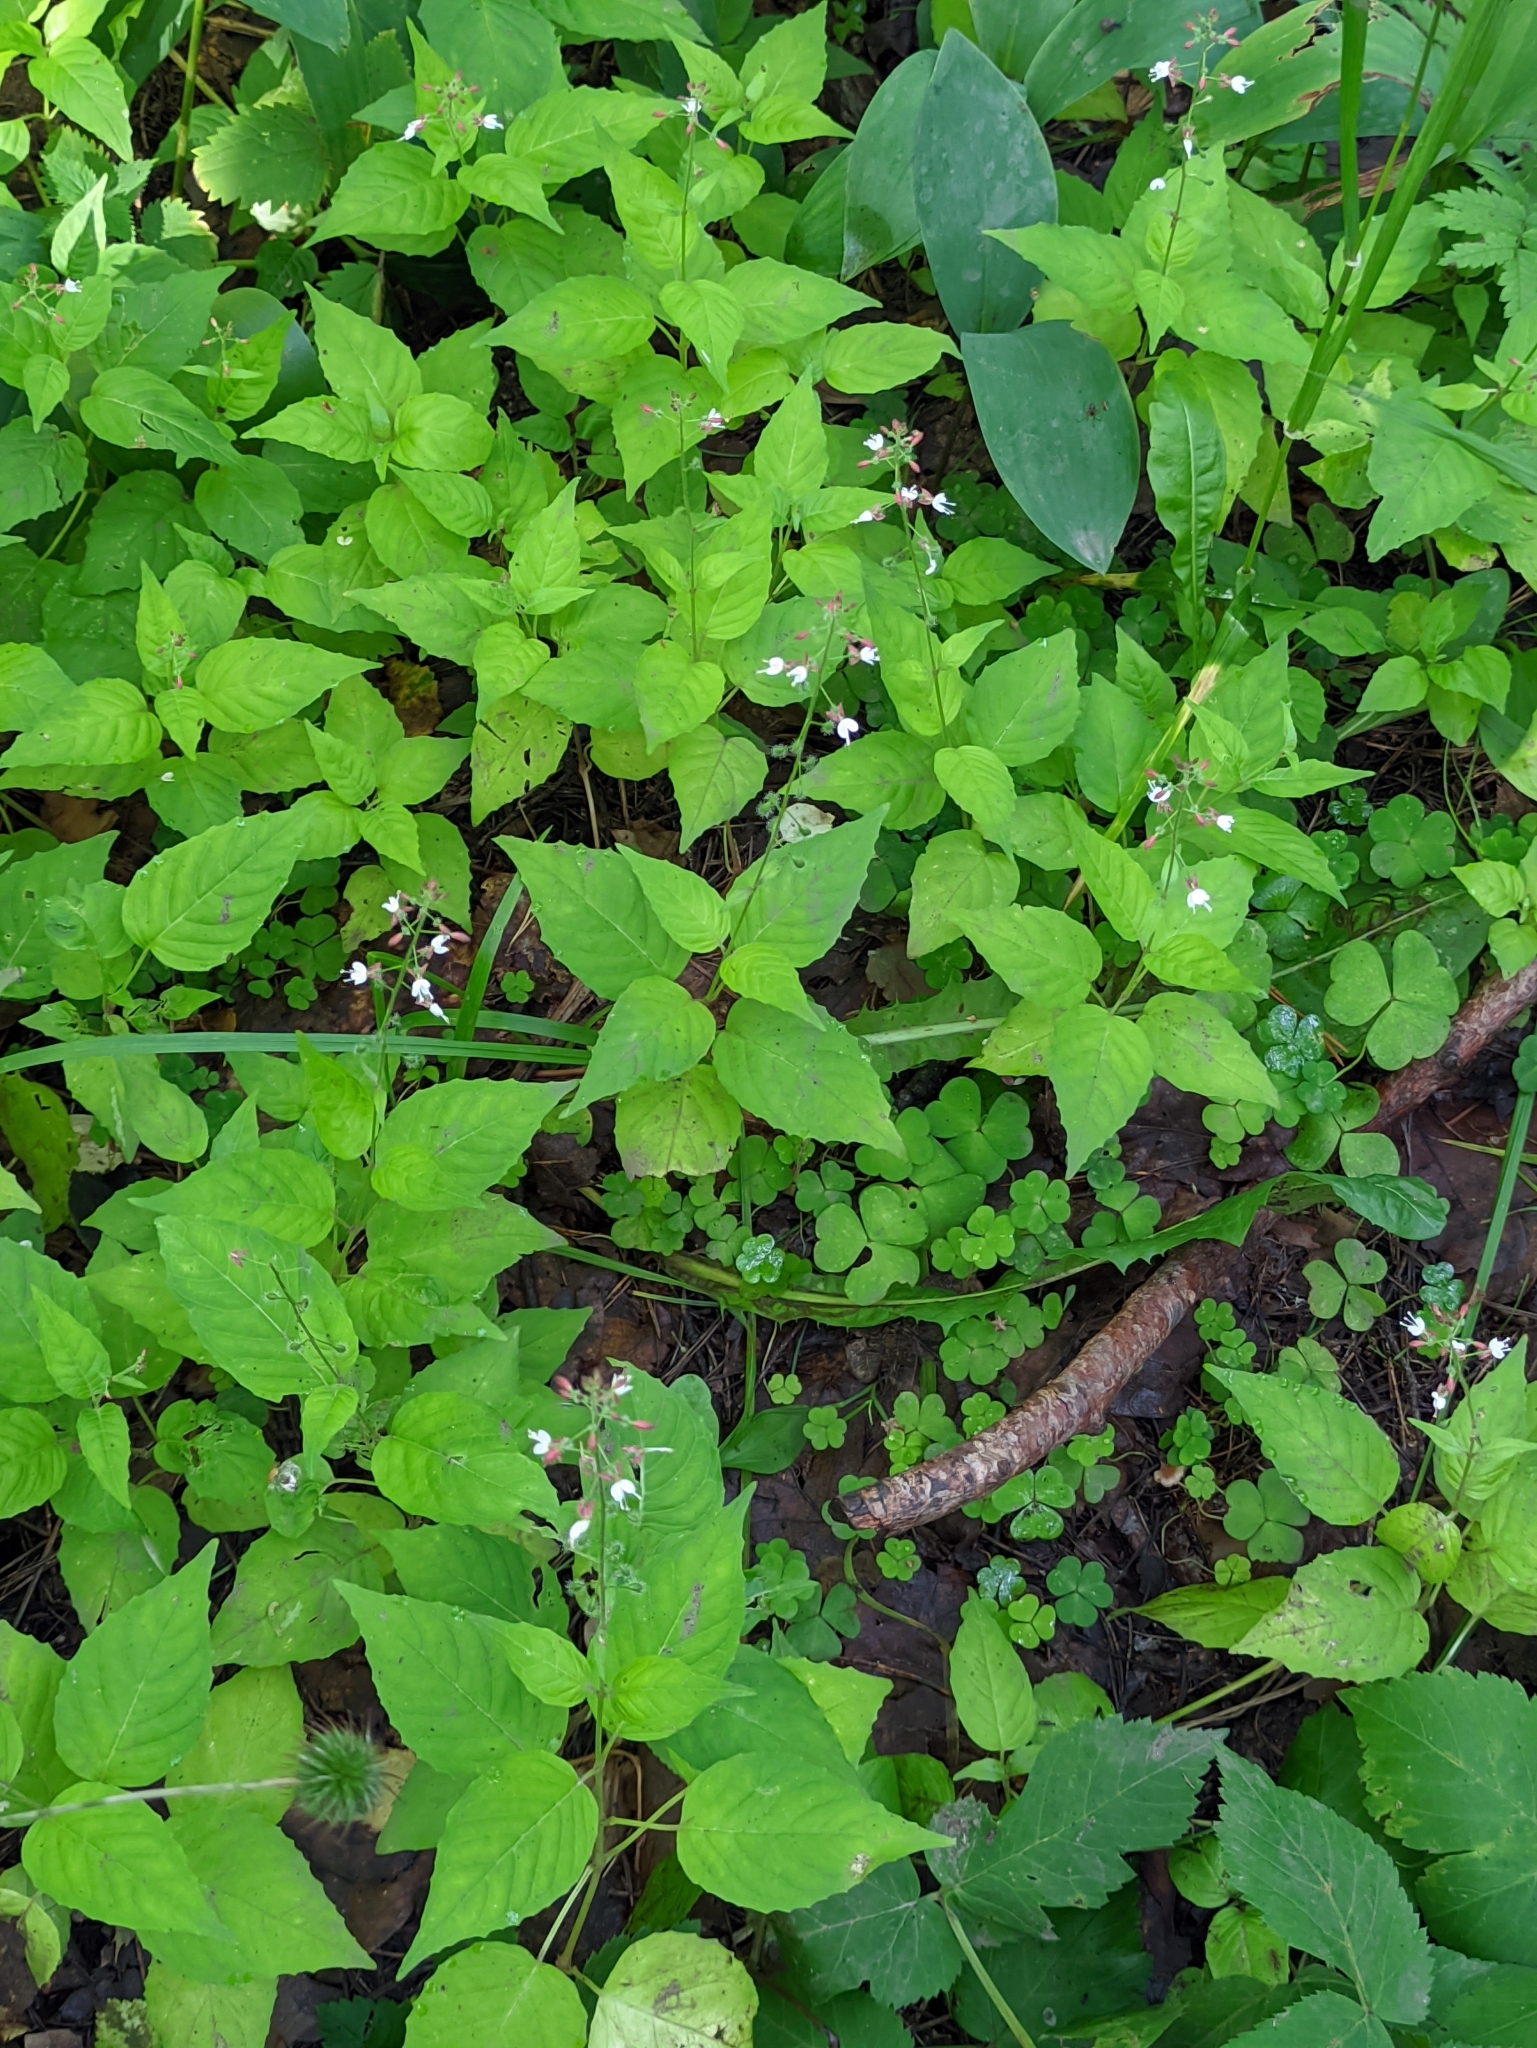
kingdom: Plantae
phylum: Tracheophyta
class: Magnoliopsida
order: Myrtales
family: Onagraceae
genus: Circaea
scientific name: Circaea lutetiana
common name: Enchanter's-nightshade
